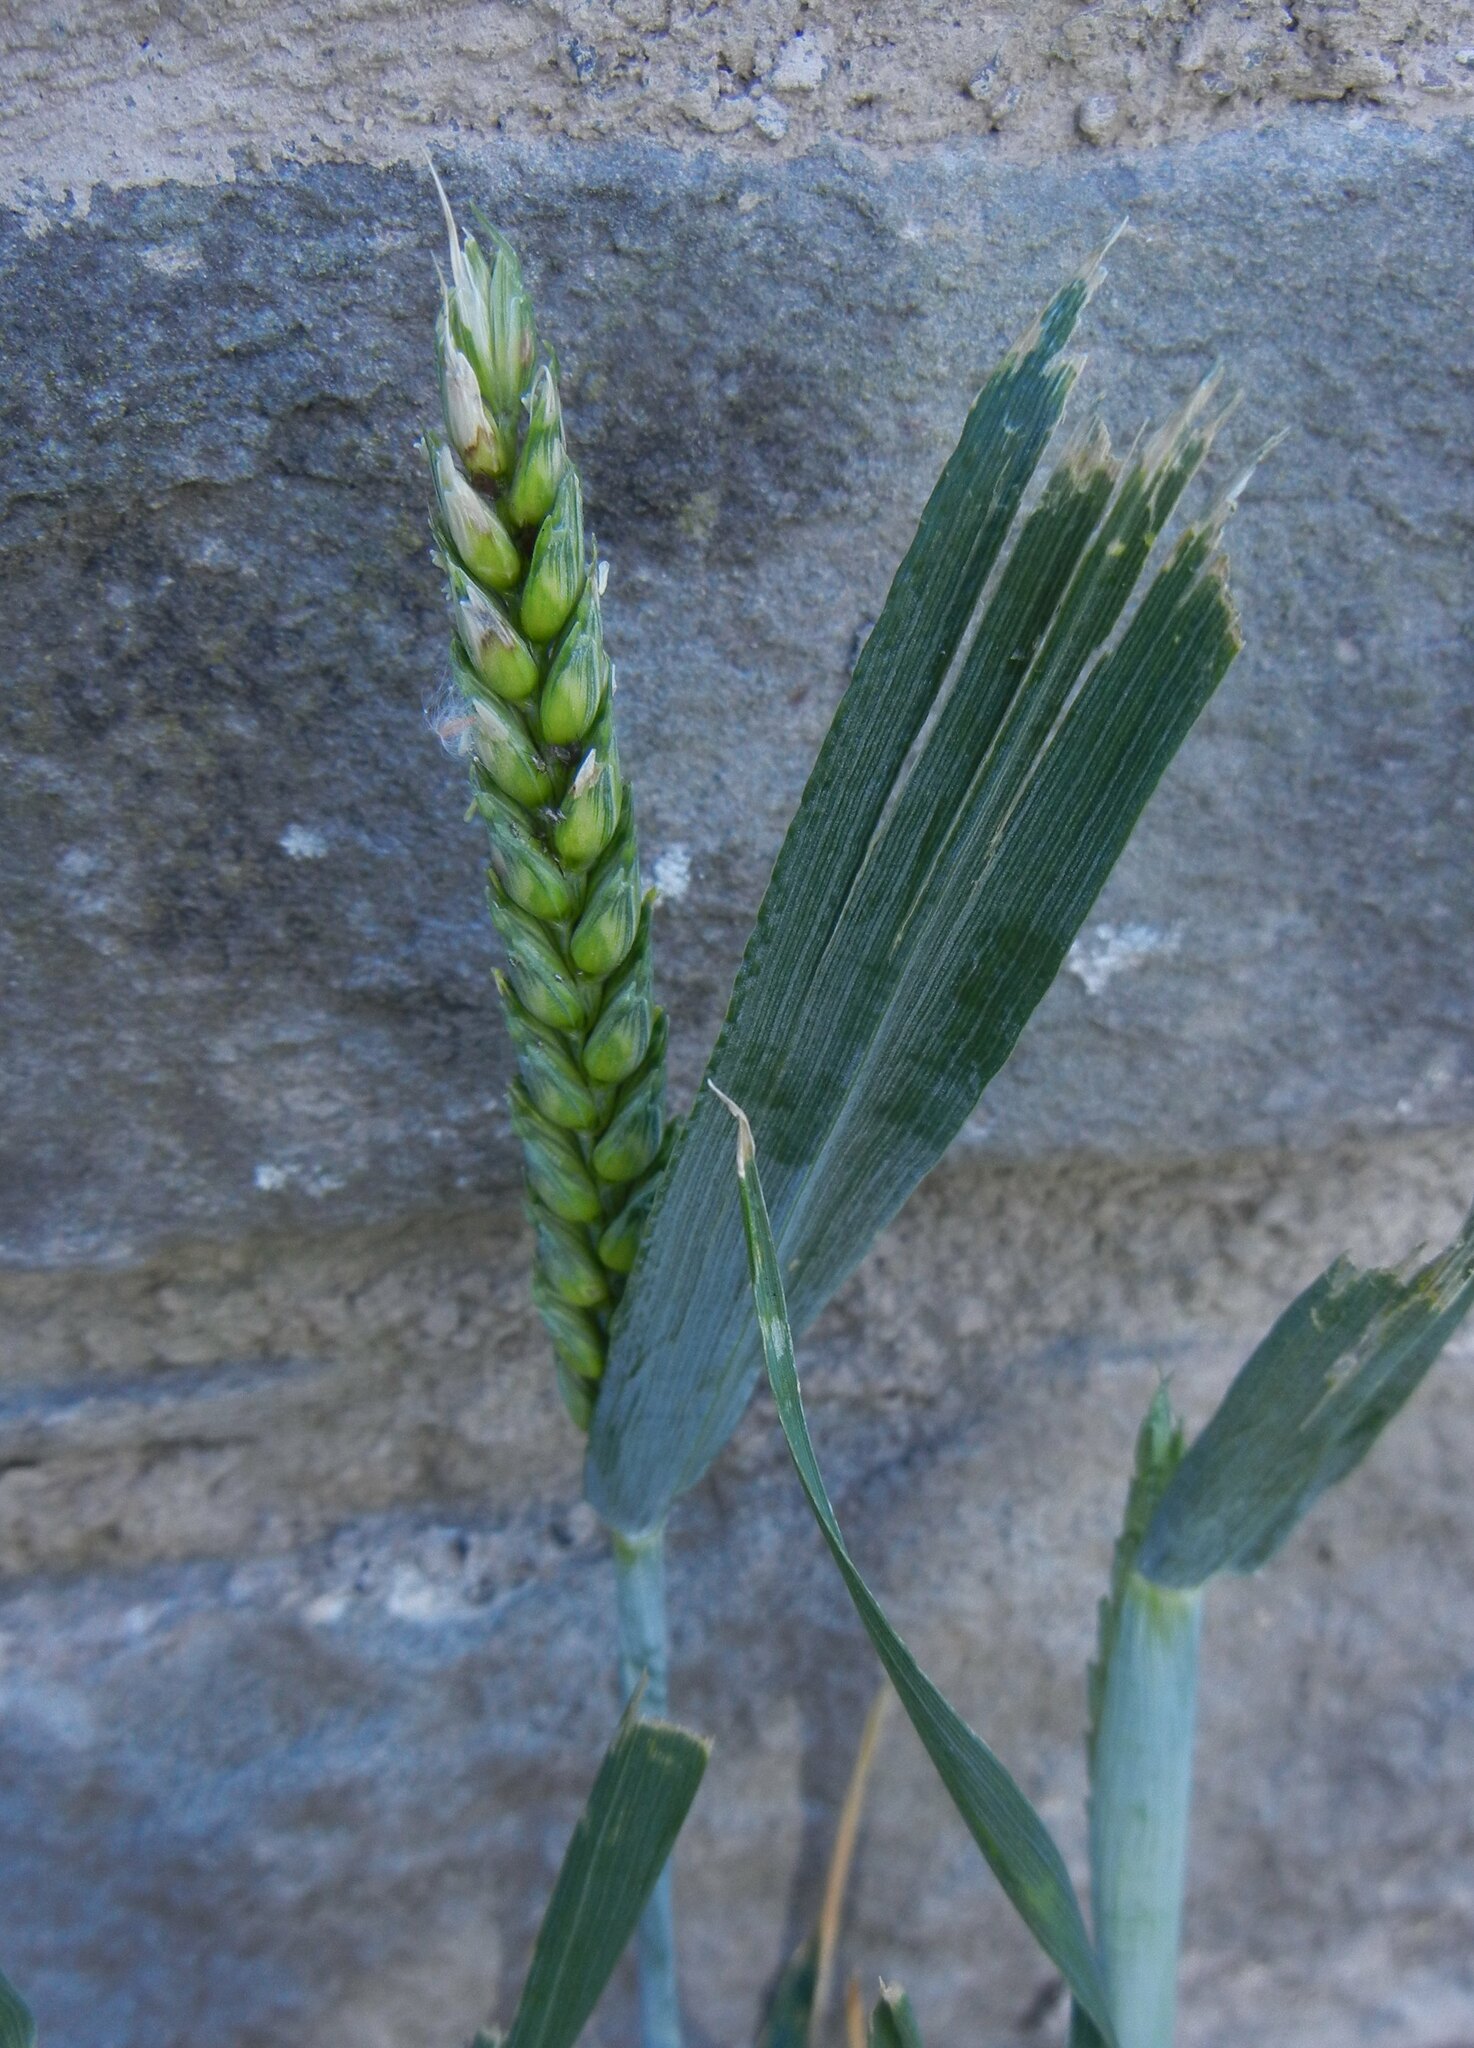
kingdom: Plantae
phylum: Tracheophyta
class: Liliopsida
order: Poales
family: Poaceae
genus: Triticum
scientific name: Triticum aestivum
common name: Common wheat
